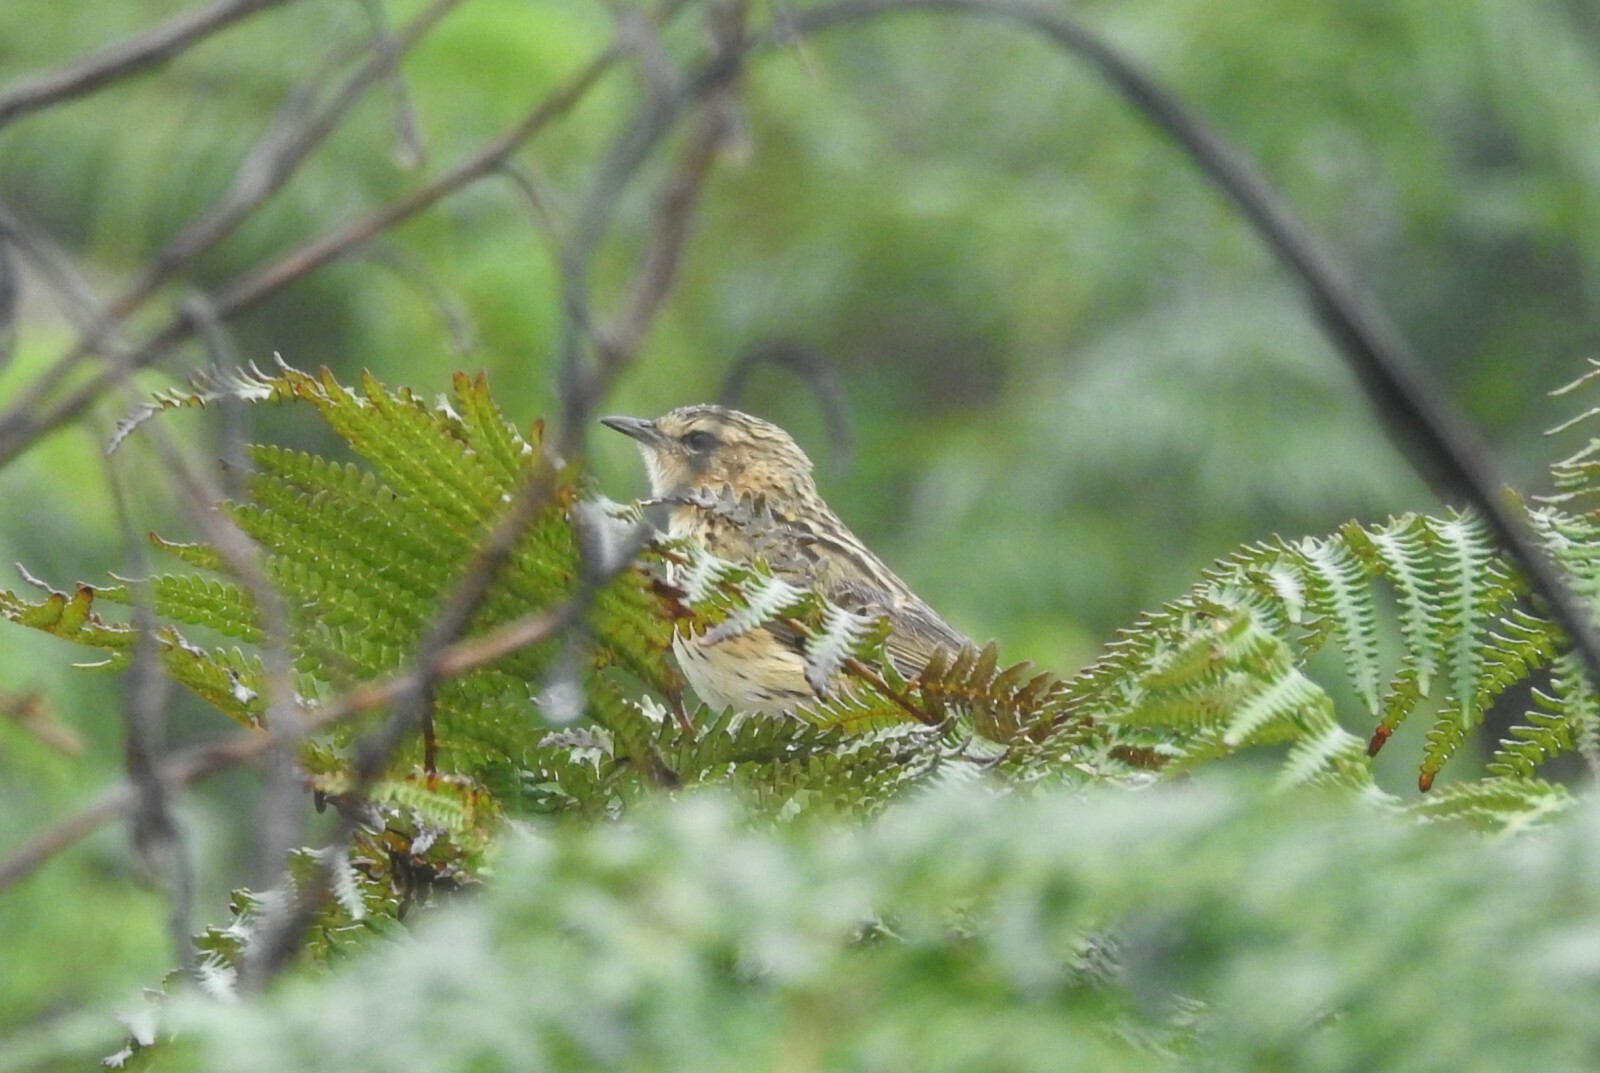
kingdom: Animalia
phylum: Chordata
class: Aves
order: Passeriformes
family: Motacillidae
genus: Anthus
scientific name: Anthus nilghiriensis
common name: Nilgiri pipit
